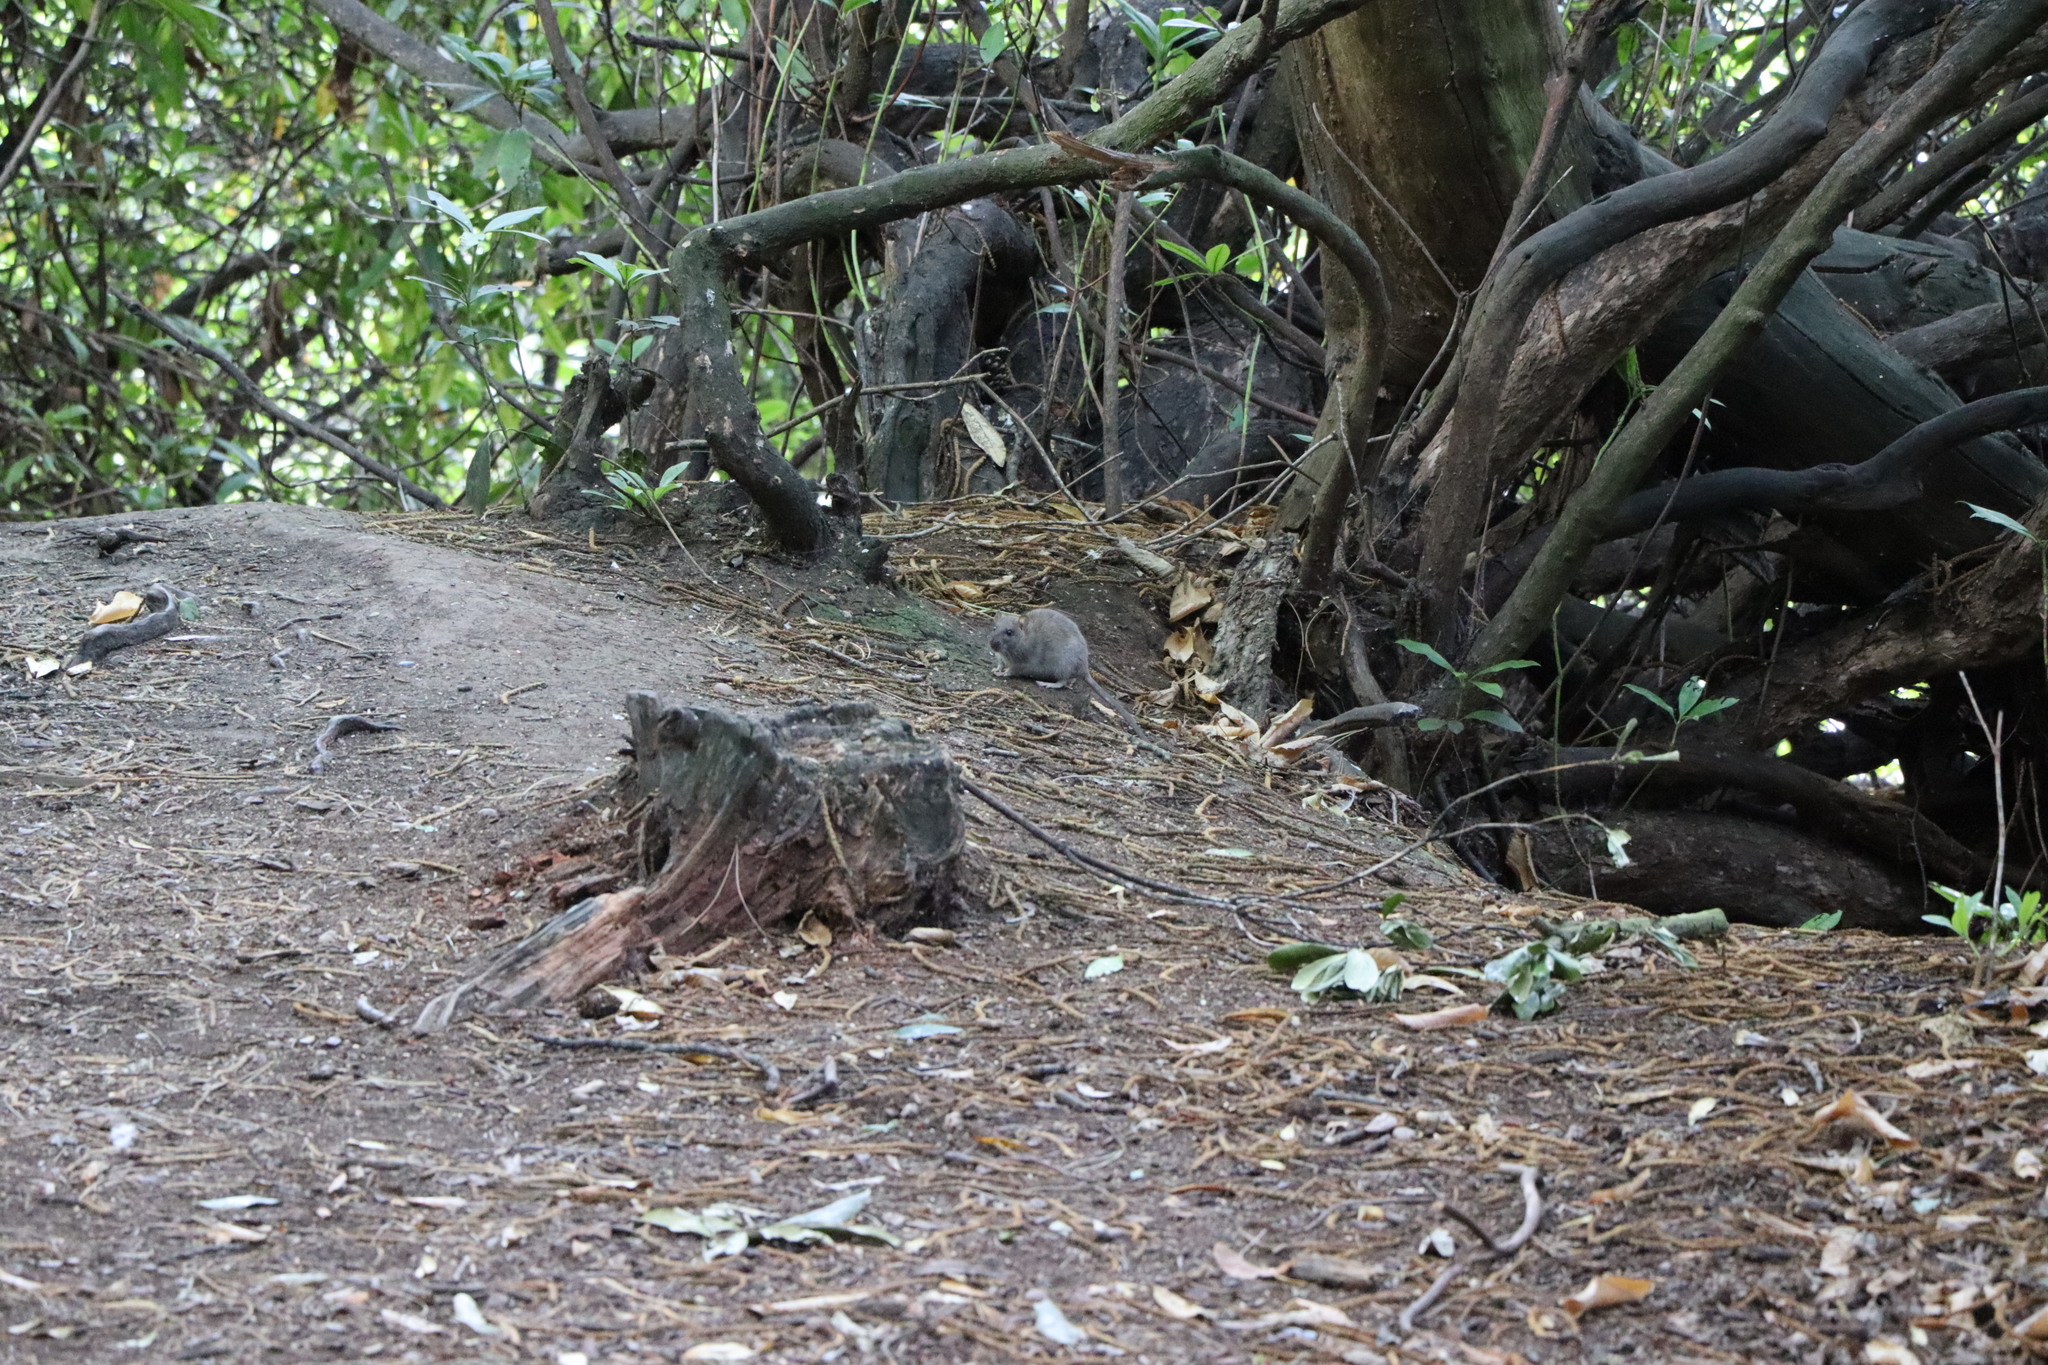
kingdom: Animalia
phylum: Chordata
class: Mammalia
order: Rodentia
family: Muridae
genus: Rattus
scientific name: Rattus norvegicus
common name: Brown rat
